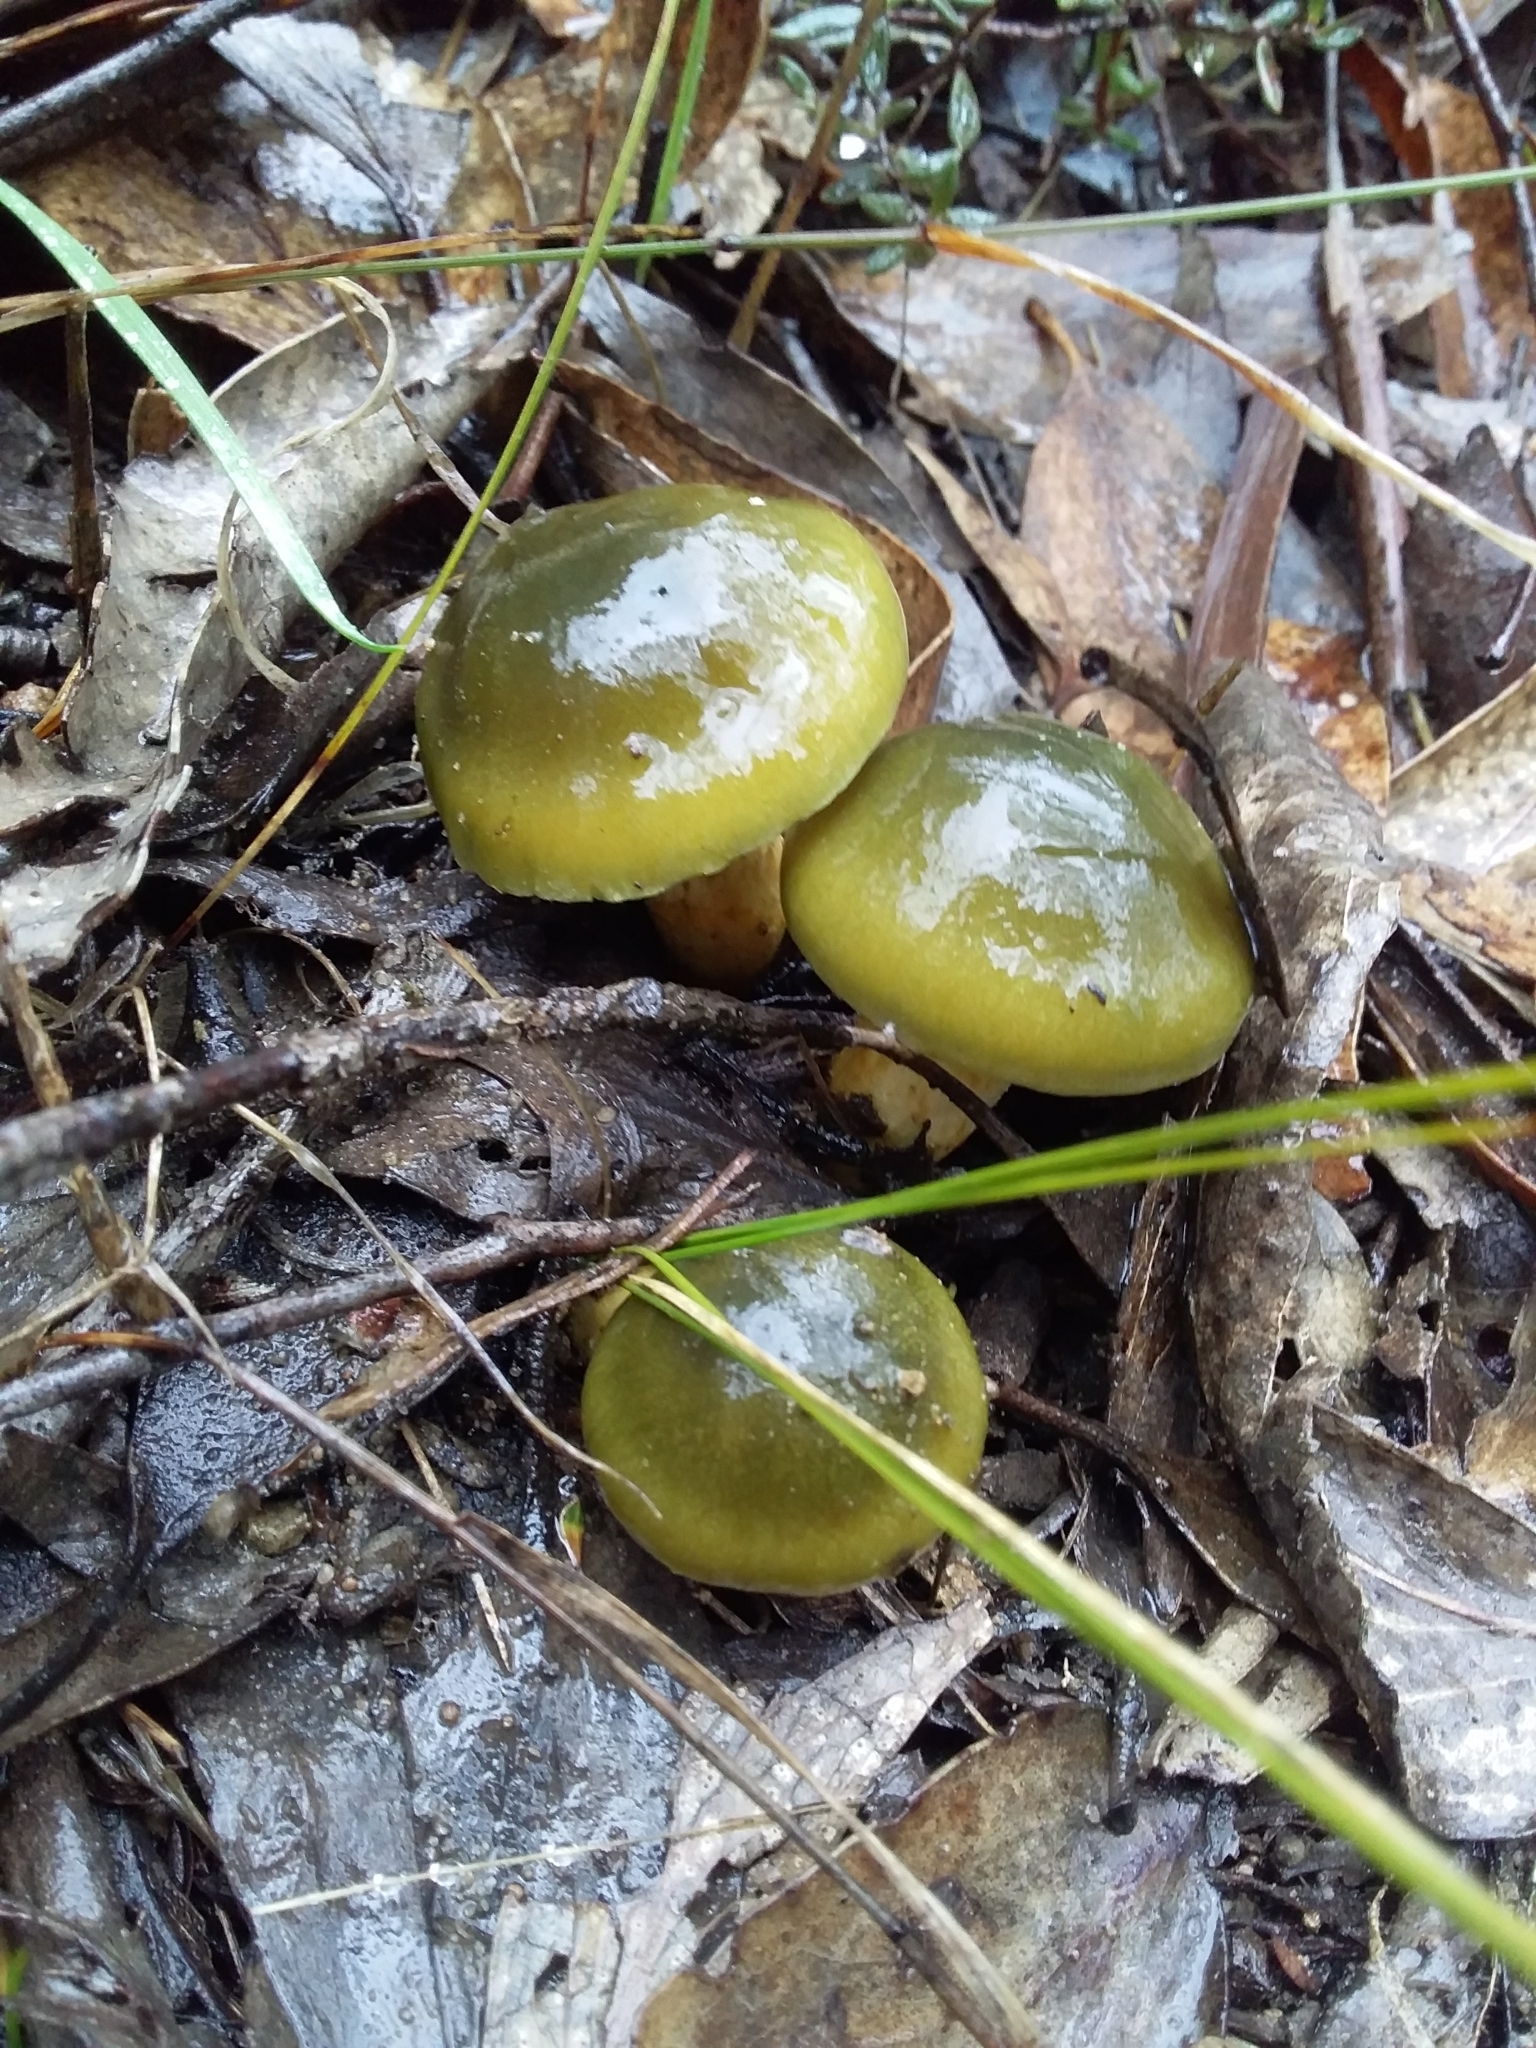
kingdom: Fungi
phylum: Basidiomycota
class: Agaricomycetes
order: Agaricales
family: Cortinariaceae
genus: Cortinarius
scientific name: Cortinarius austrovenetus
